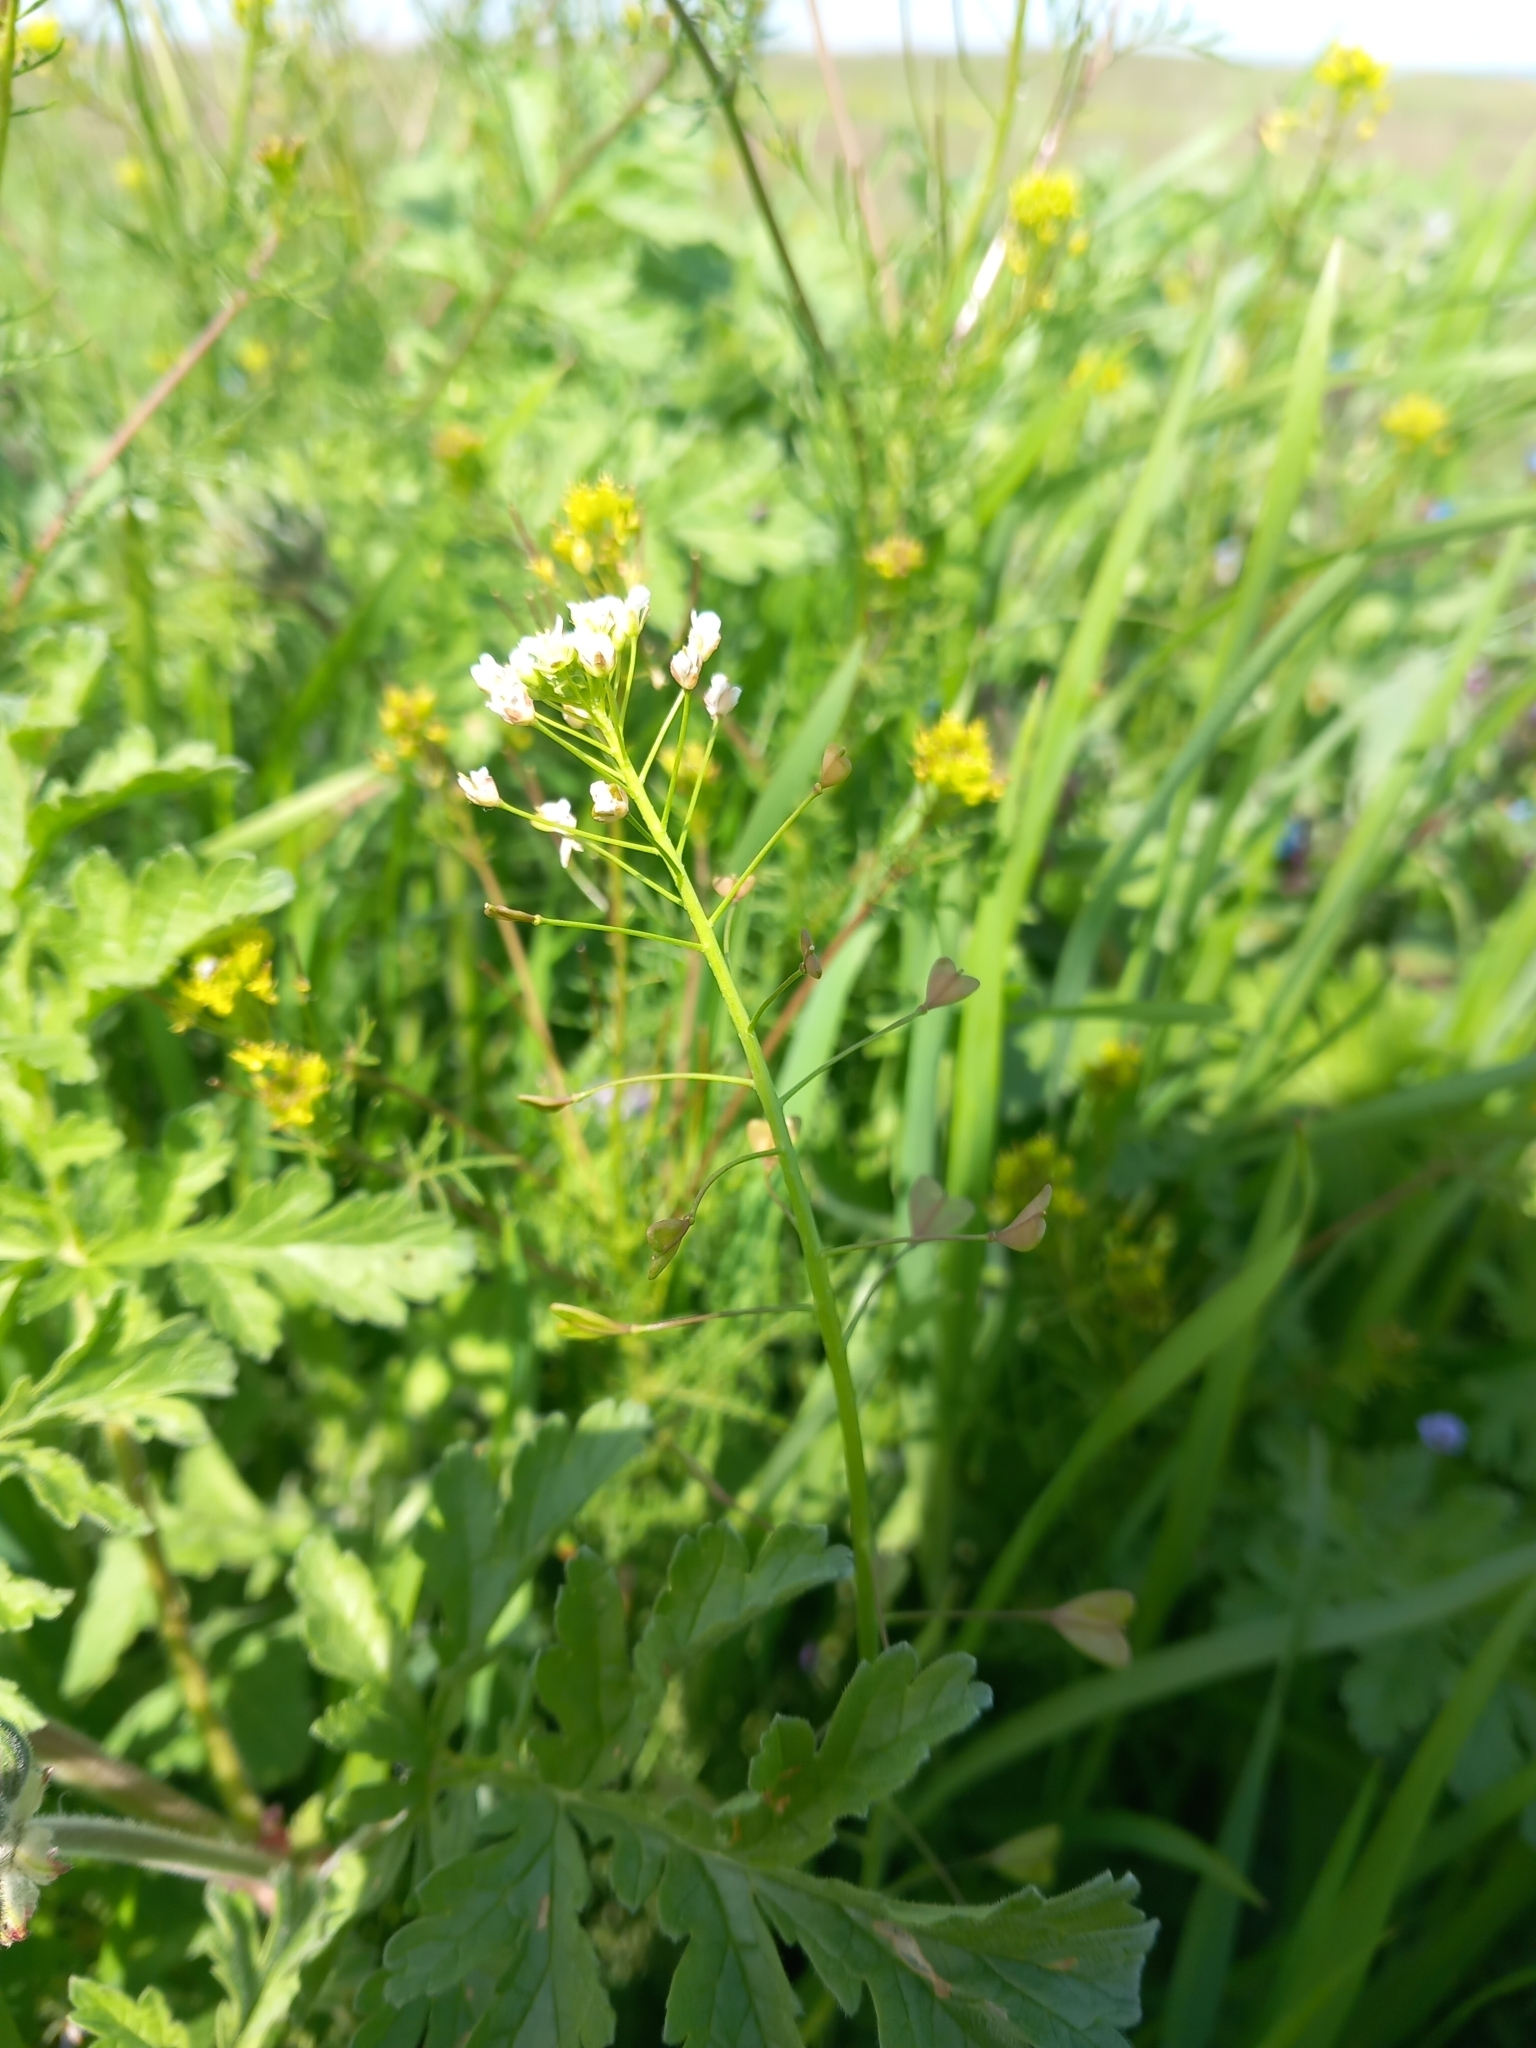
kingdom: Plantae
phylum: Tracheophyta
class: Magnoliopsida
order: Brassicales
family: Brassicaceae
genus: Capsella
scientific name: Capsella bursa-pastoris
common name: Shepherd's purse
